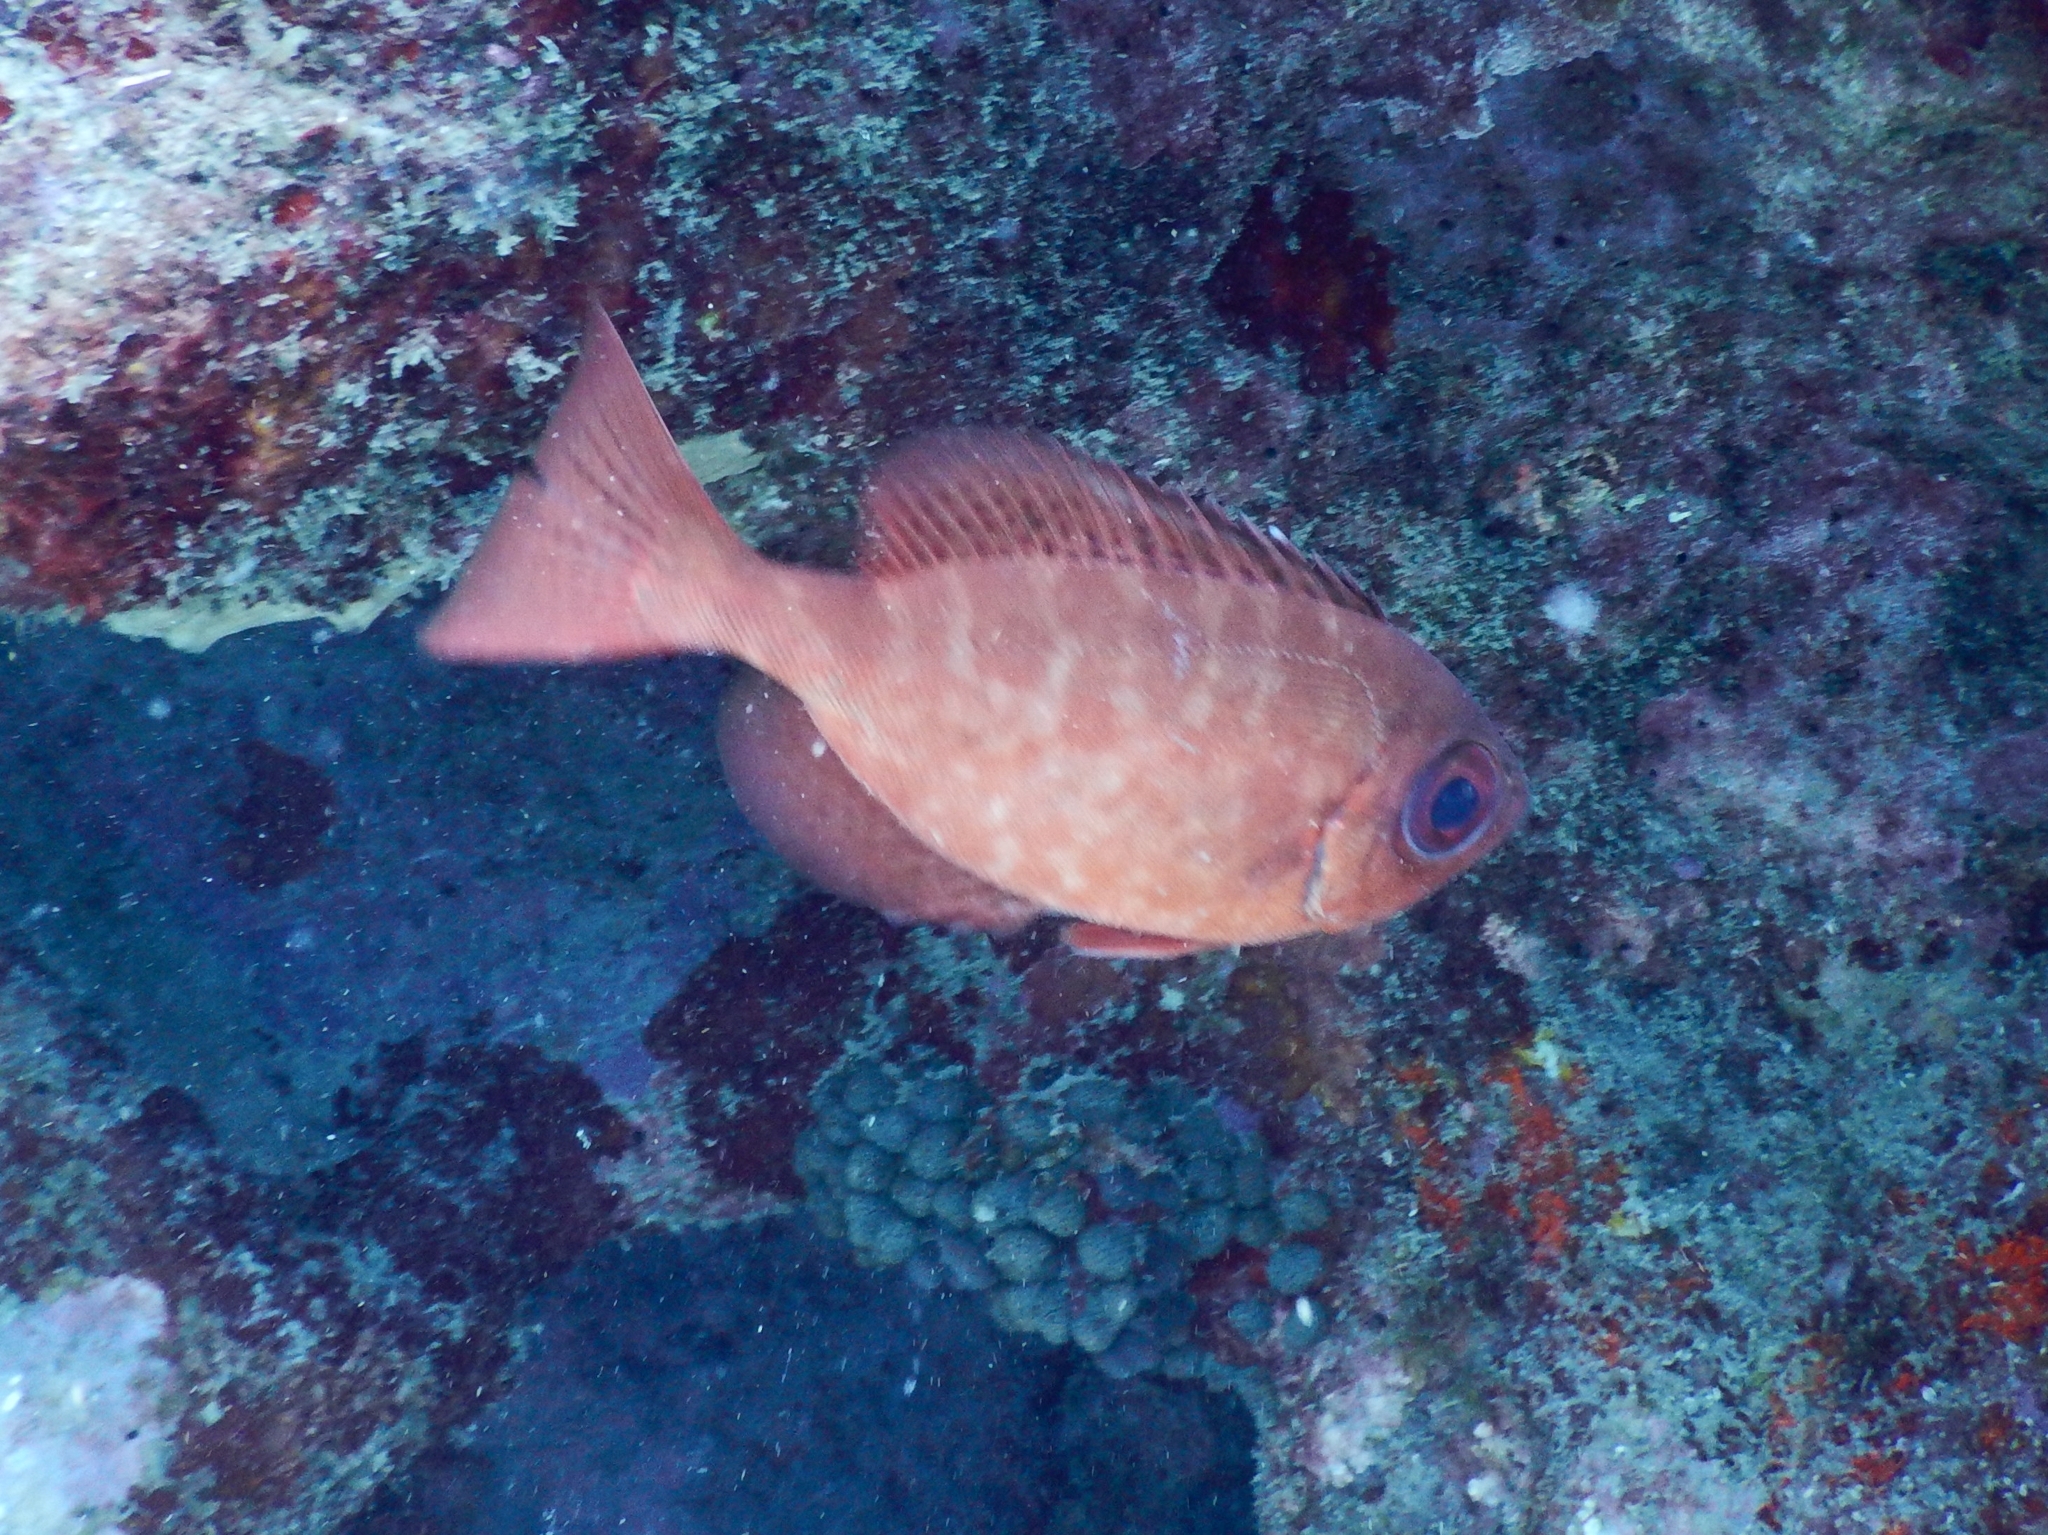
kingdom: Animalia
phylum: Chordata
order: Perciformes
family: Priacanthidae
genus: Heteropriacanthus
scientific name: Heteropriacanthus cruentatus
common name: Glasseye
